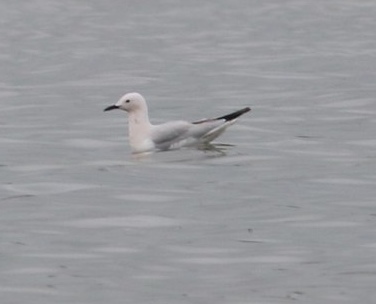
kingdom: Animalia
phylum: Chordata
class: Aves
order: Charadriiformes
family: Laridae
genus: Chroicocephalus
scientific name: Chroicocephalus genei
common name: Slender-billed gull
